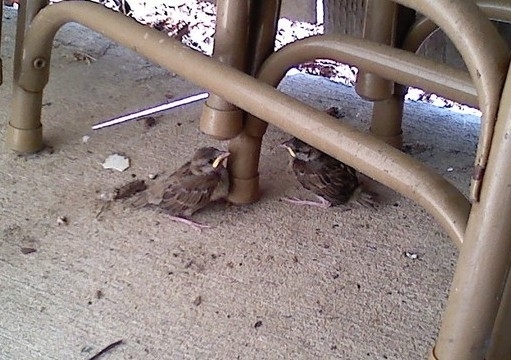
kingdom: Animalia
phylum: Chordata
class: Aves
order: Passeriformes
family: Passeridae
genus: Passer
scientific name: Passer domesticus
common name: House sparrow
